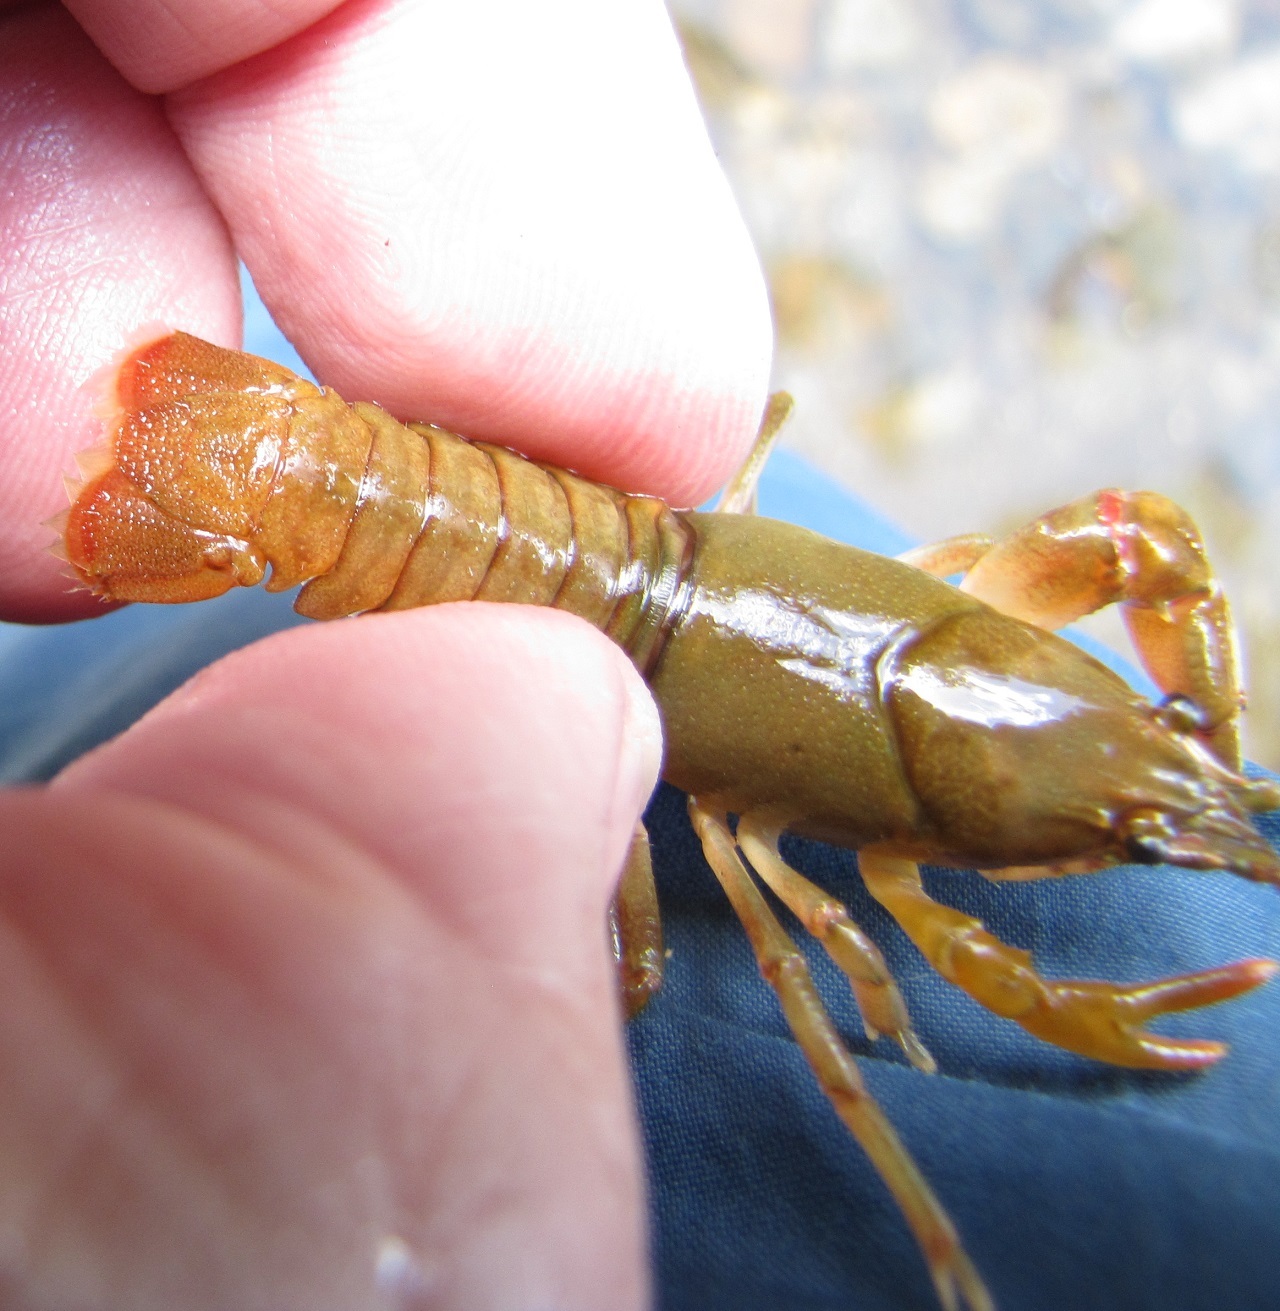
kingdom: Animalia
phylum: Arthropoda
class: Malacostraca
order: Decapoda
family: Cambaridae
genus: Cambarus
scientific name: Cambarus longirostris
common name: Longnose crayfish
